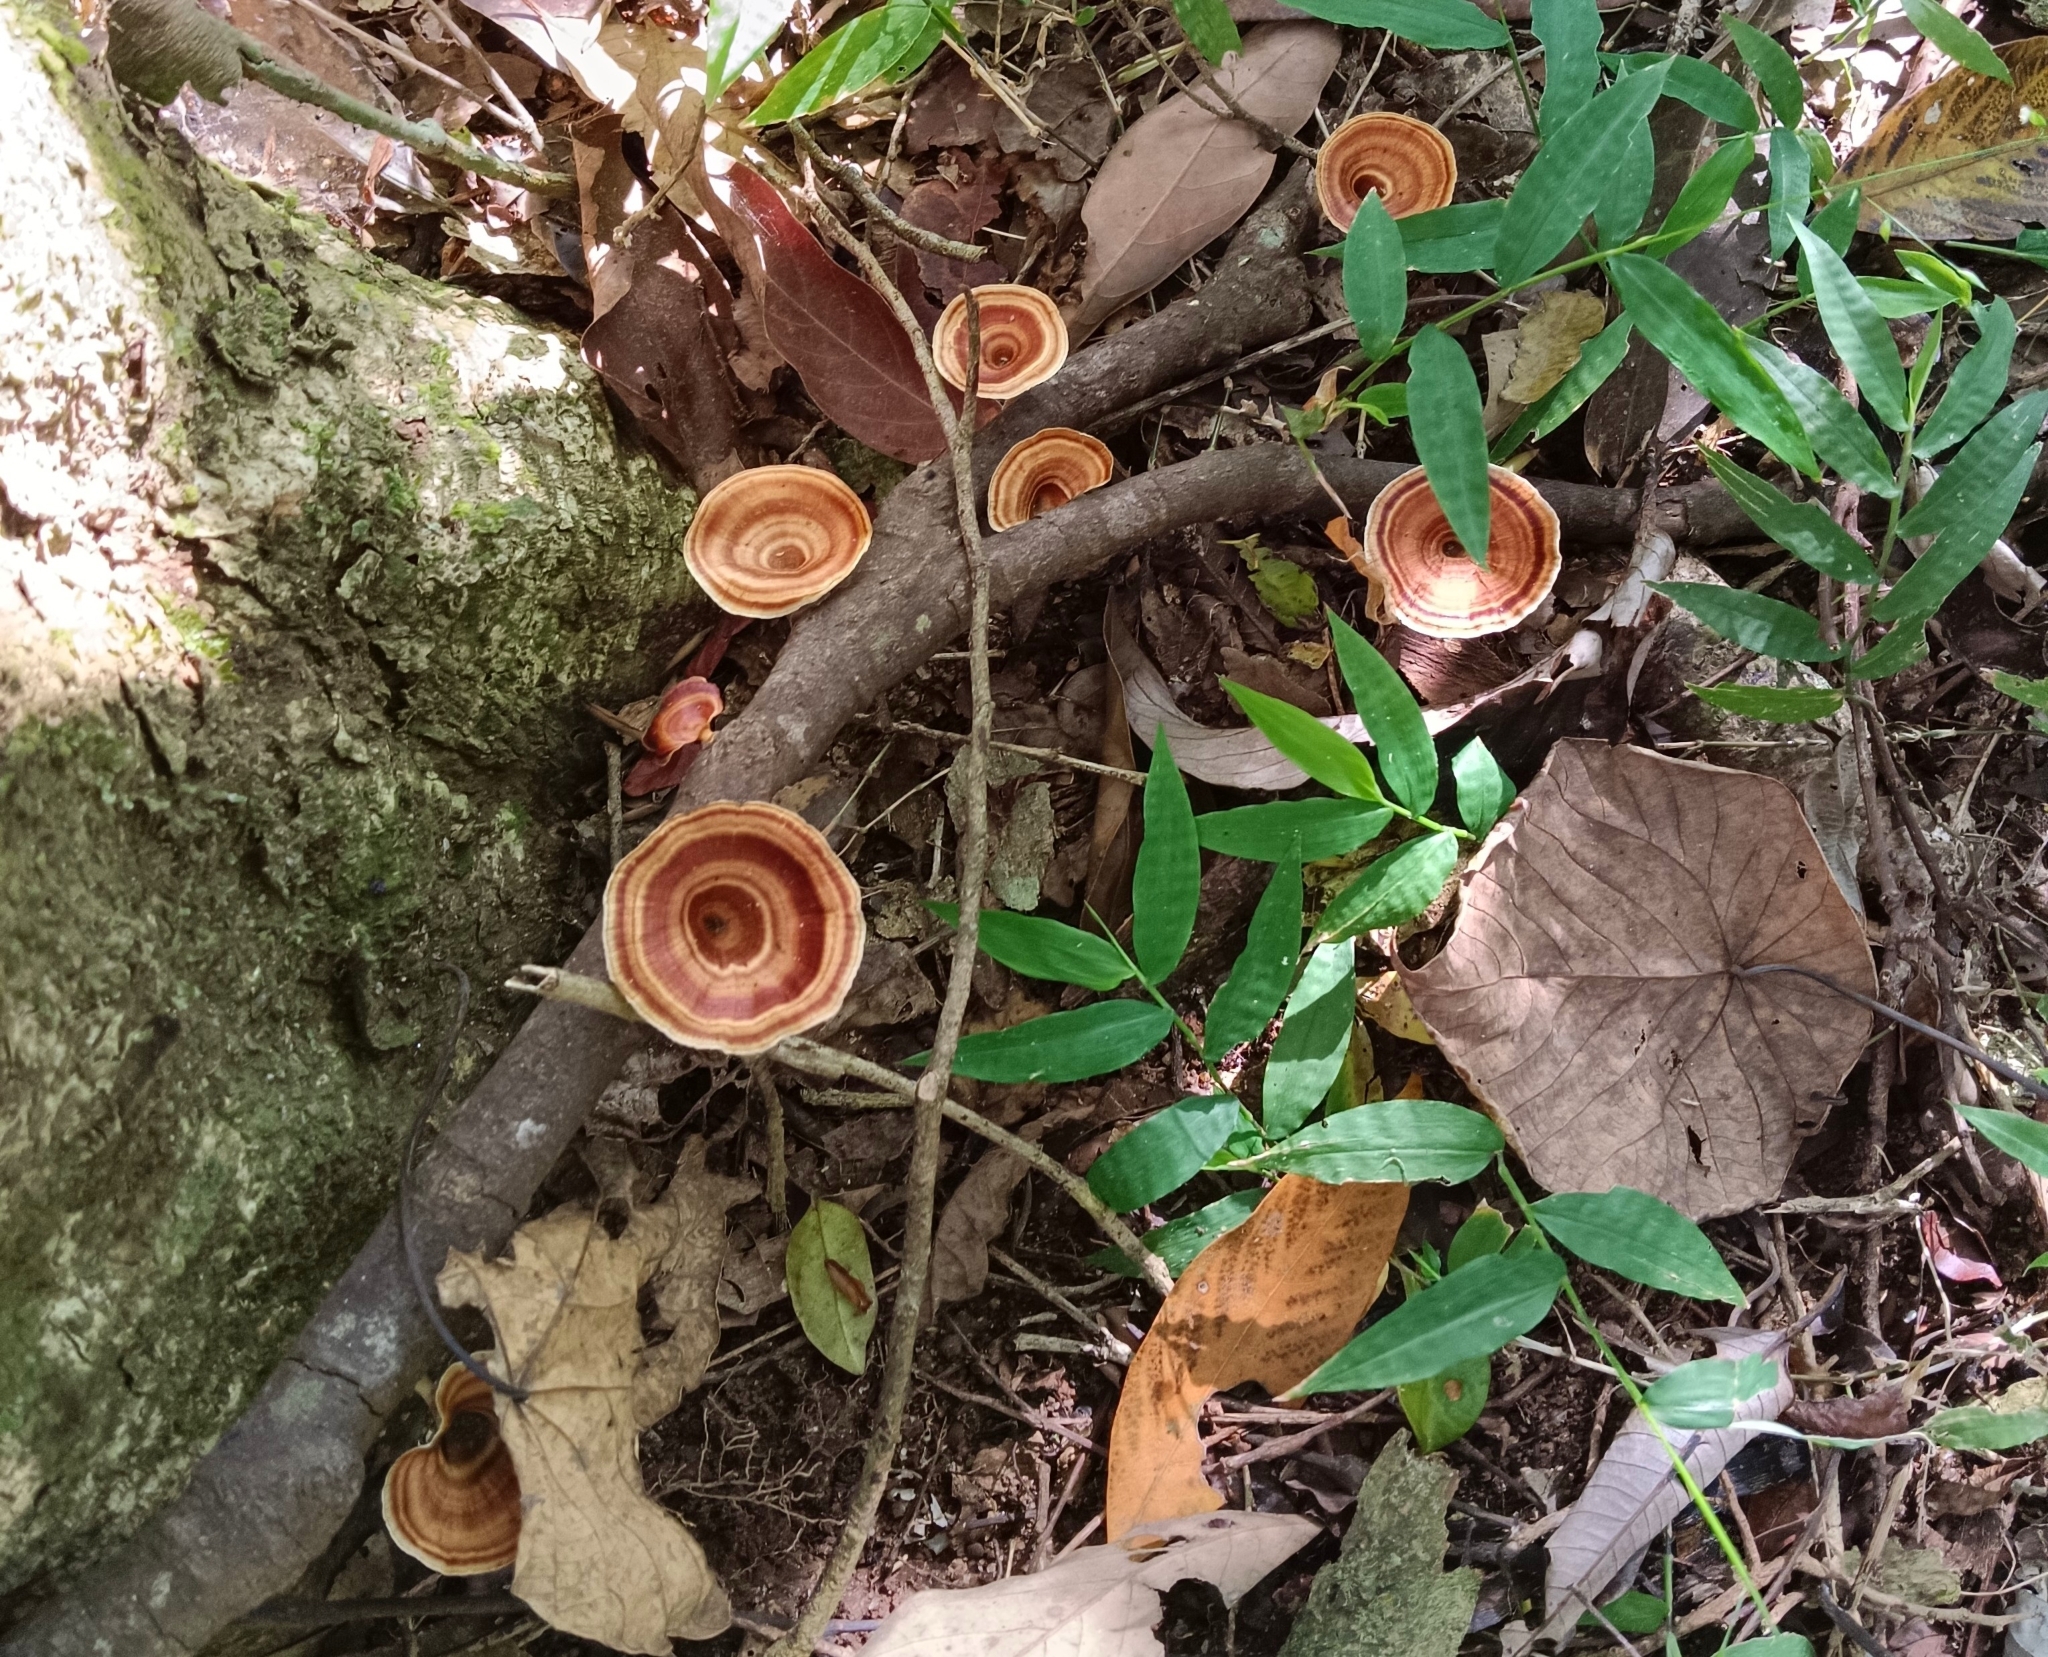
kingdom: Fungi
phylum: Basidiomycota
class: Agaricomycetes
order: Polyporales
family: Polyporaceae
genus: Microporus
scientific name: Microporus xanthopus
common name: Yellow-stemmed micropore
